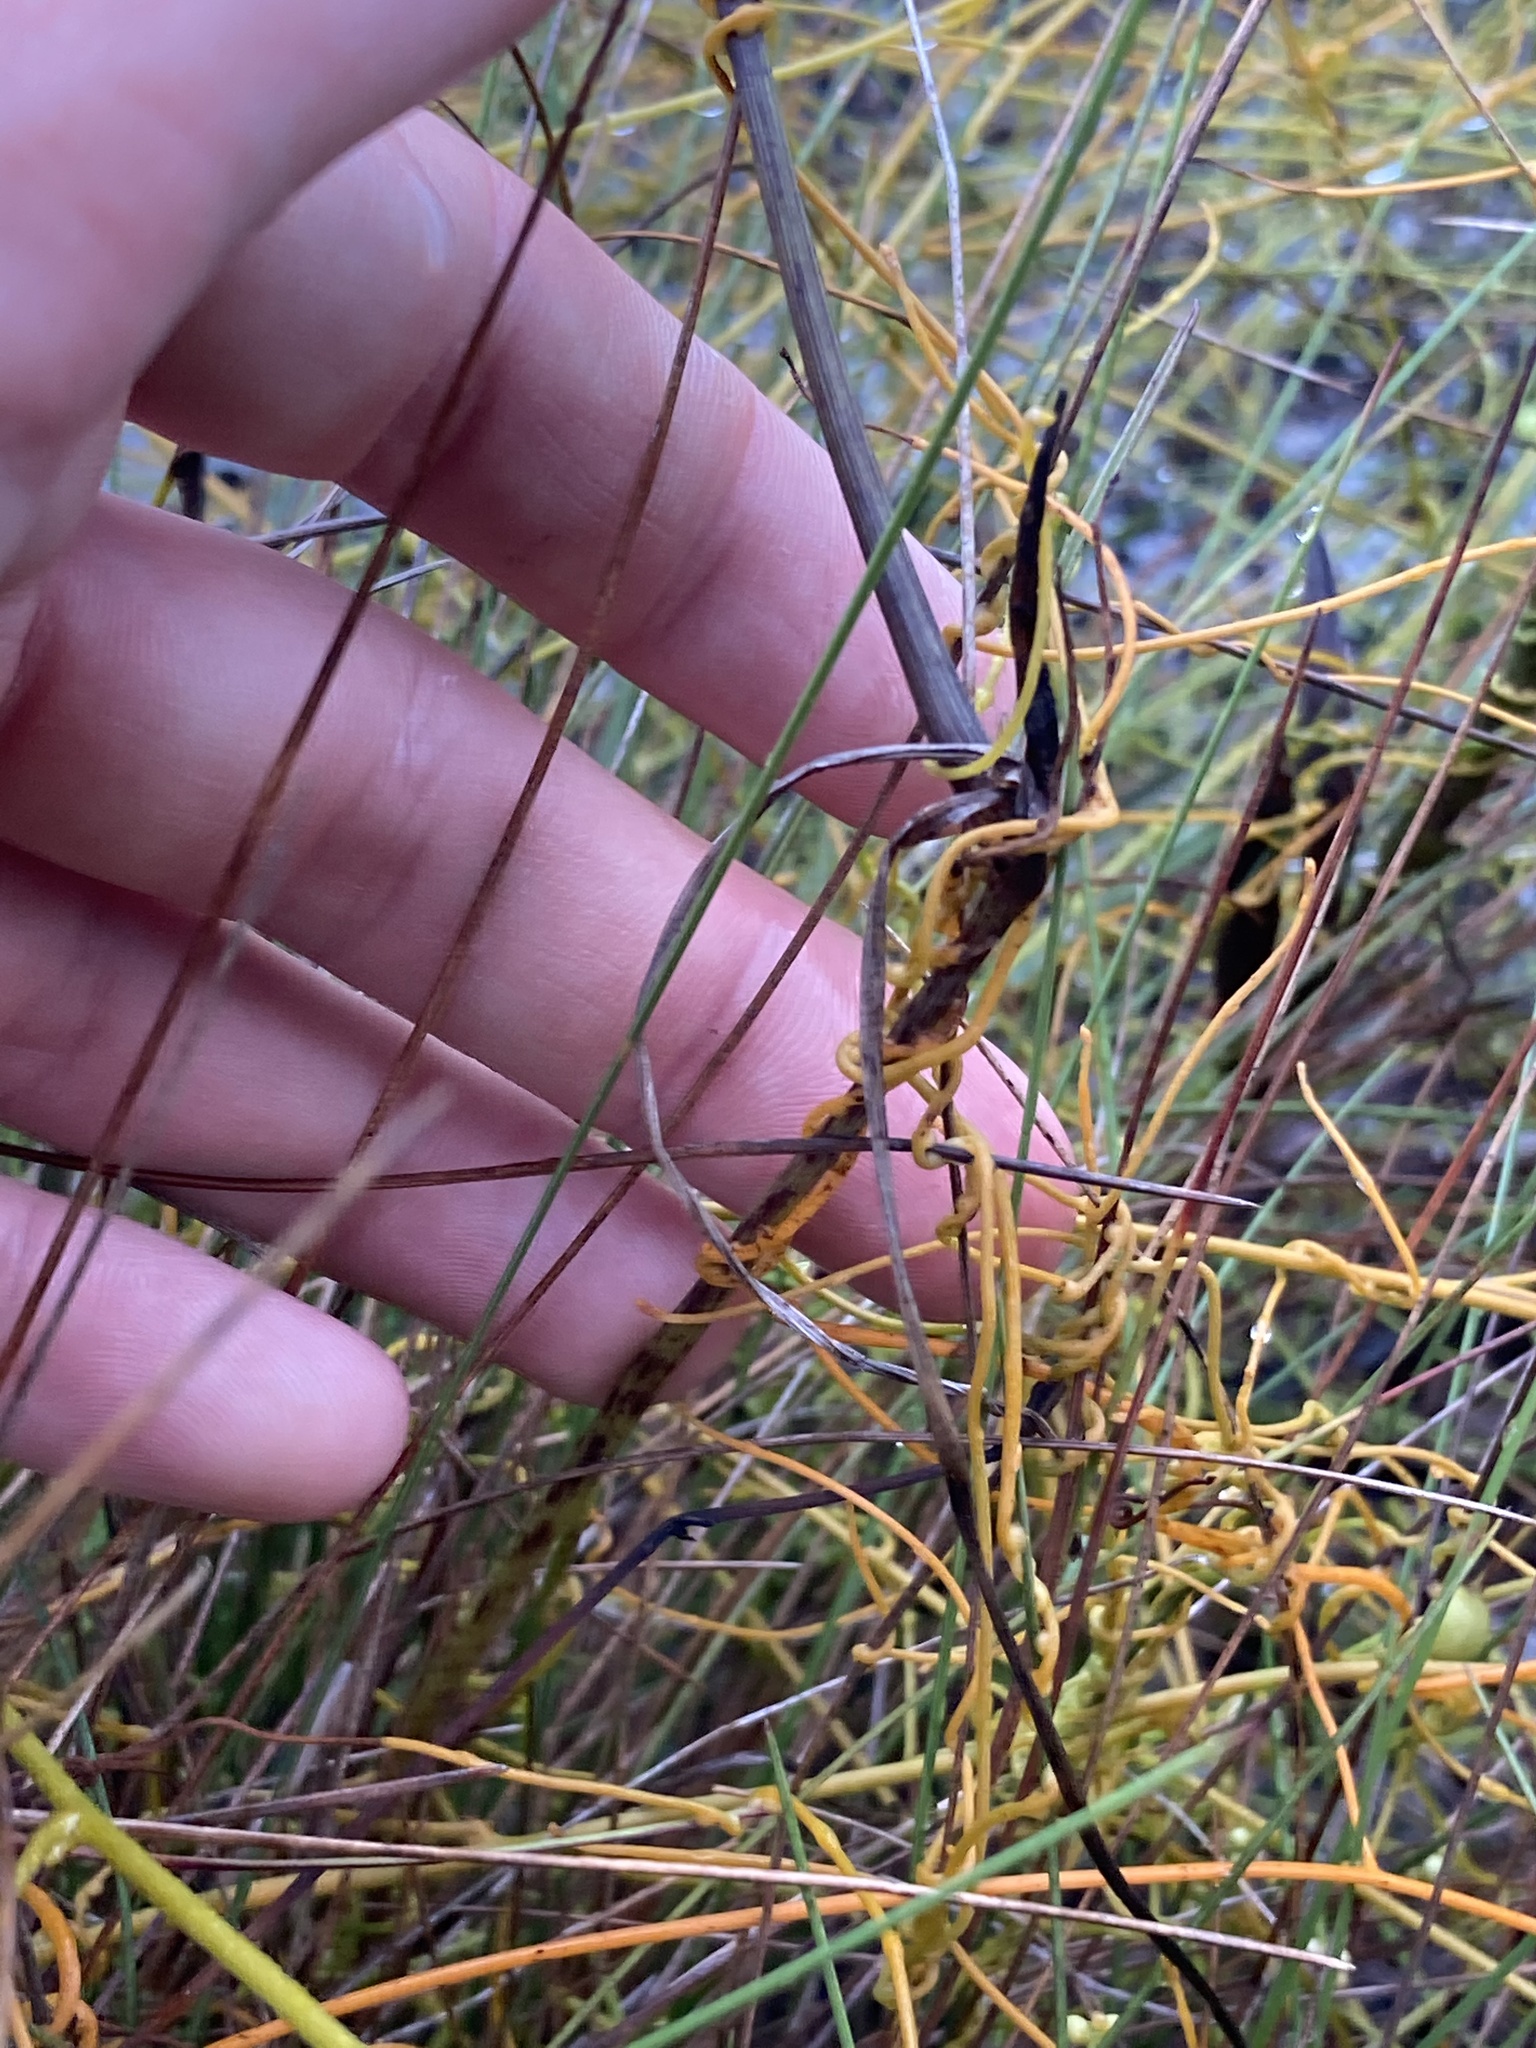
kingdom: Plantae
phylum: Tracheophyta
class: Liliopsida
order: Commelinales
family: Commelinaceae
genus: Callisia
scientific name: Callisia ornata
